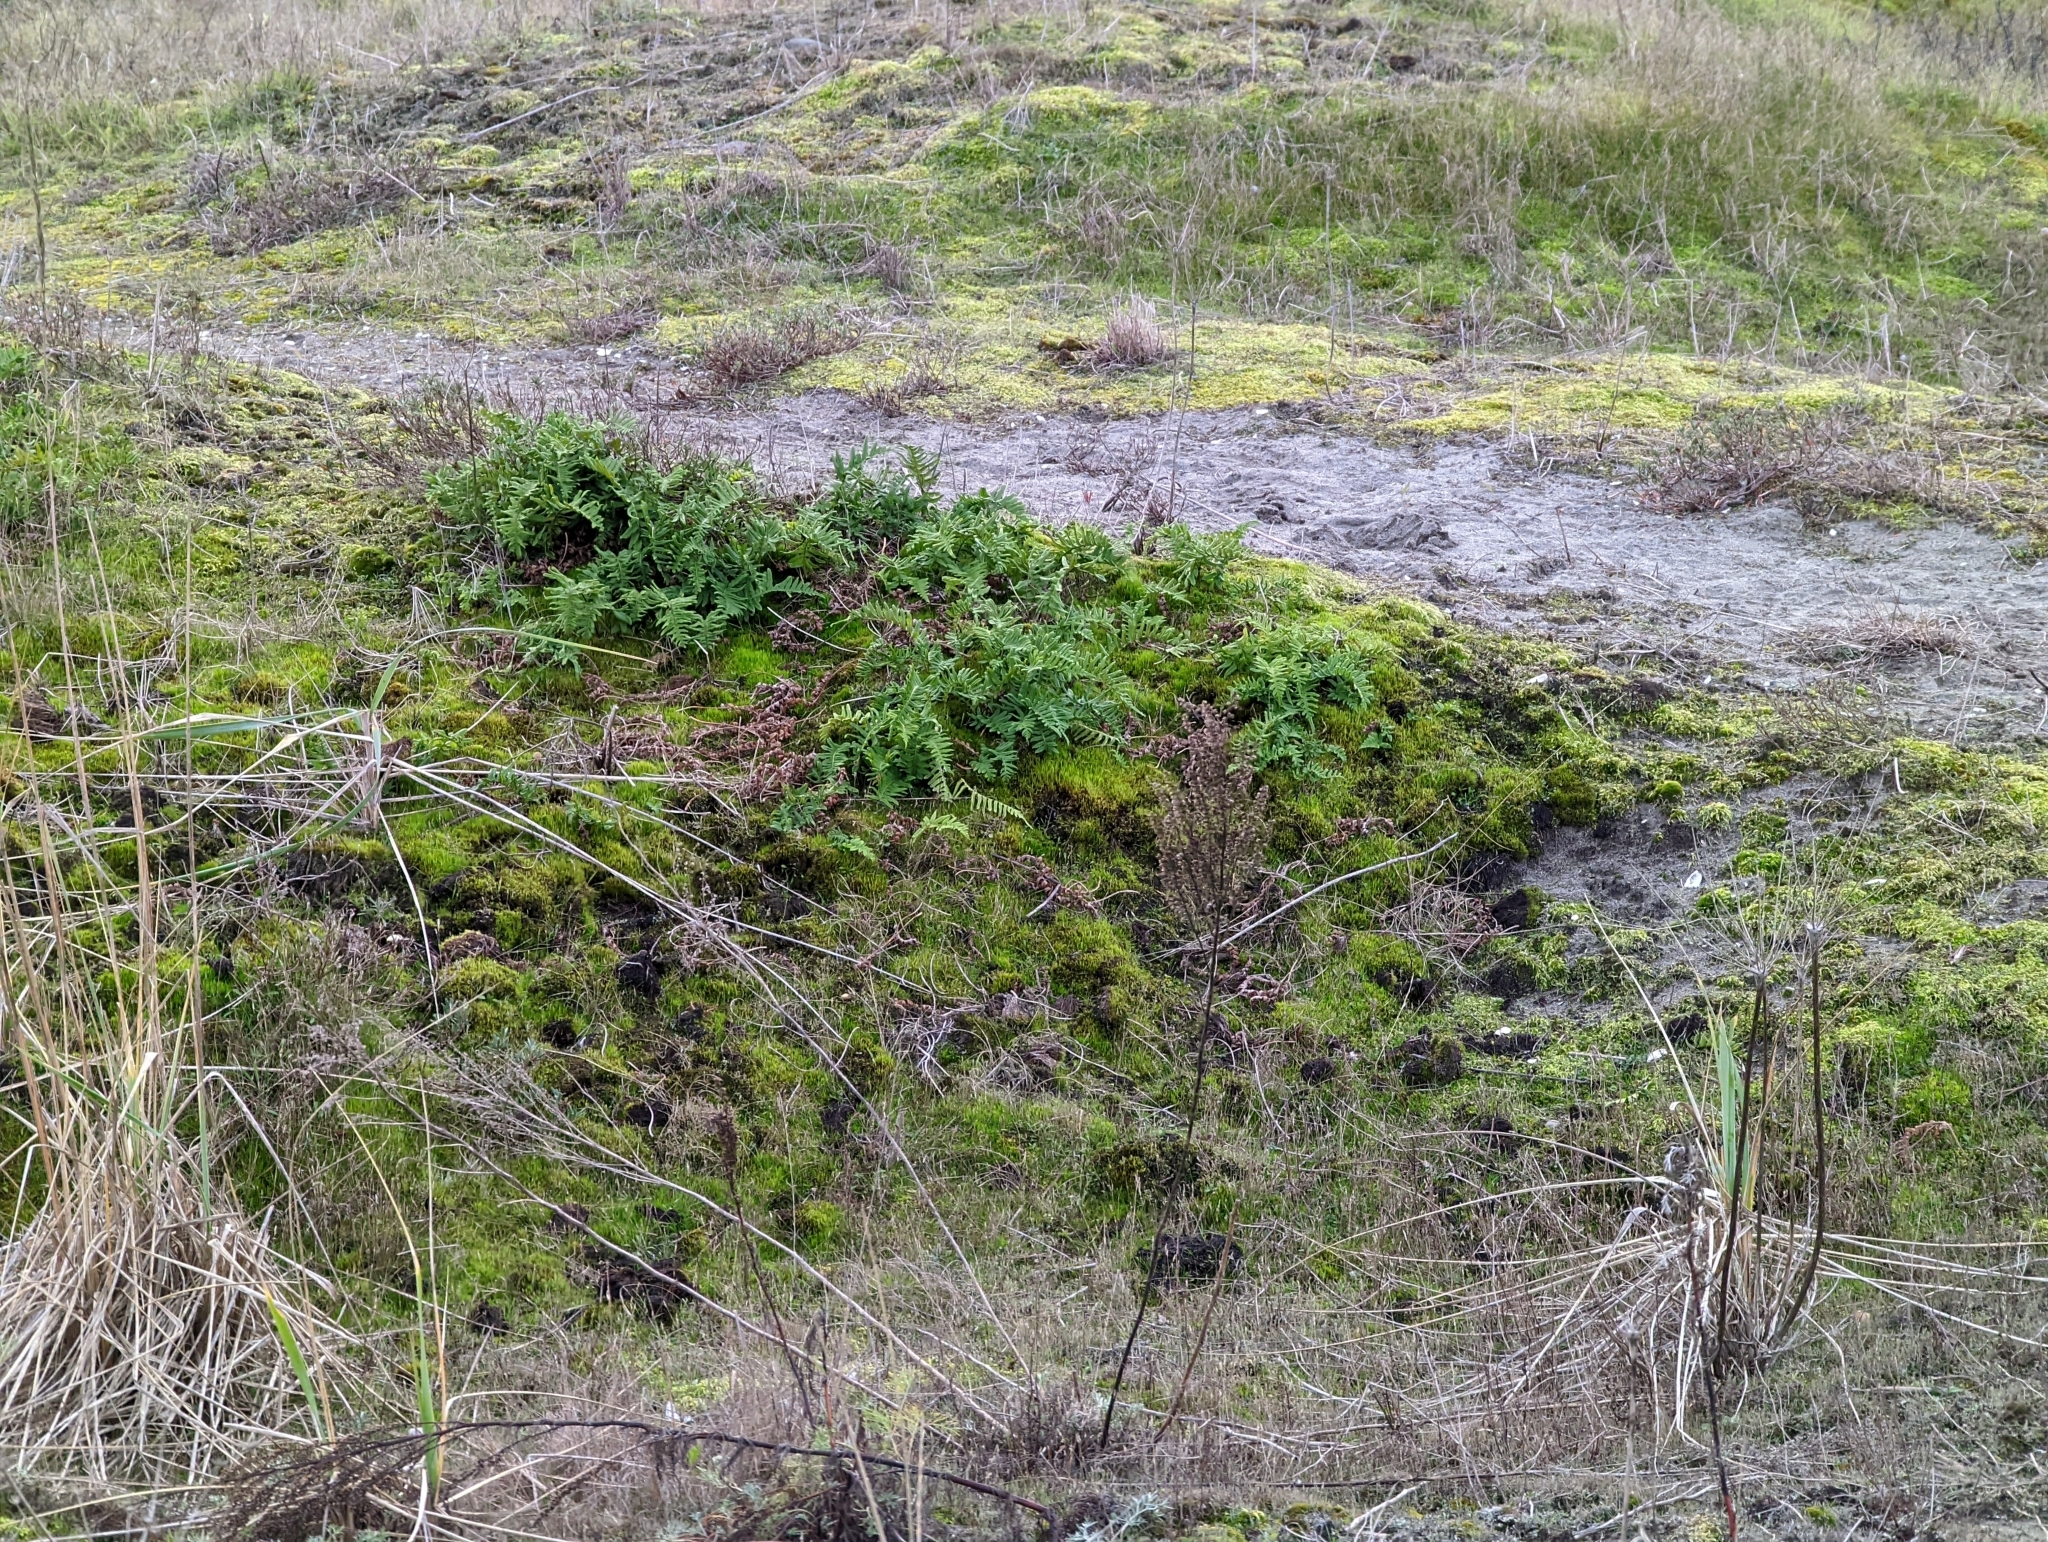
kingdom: Plantae
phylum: Tracheophyta
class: Polypodiopsida
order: Polypodiales
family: Polypodiaceae
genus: Polypodium
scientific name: Polypodium glycyrrhiza
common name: Licorice fern
